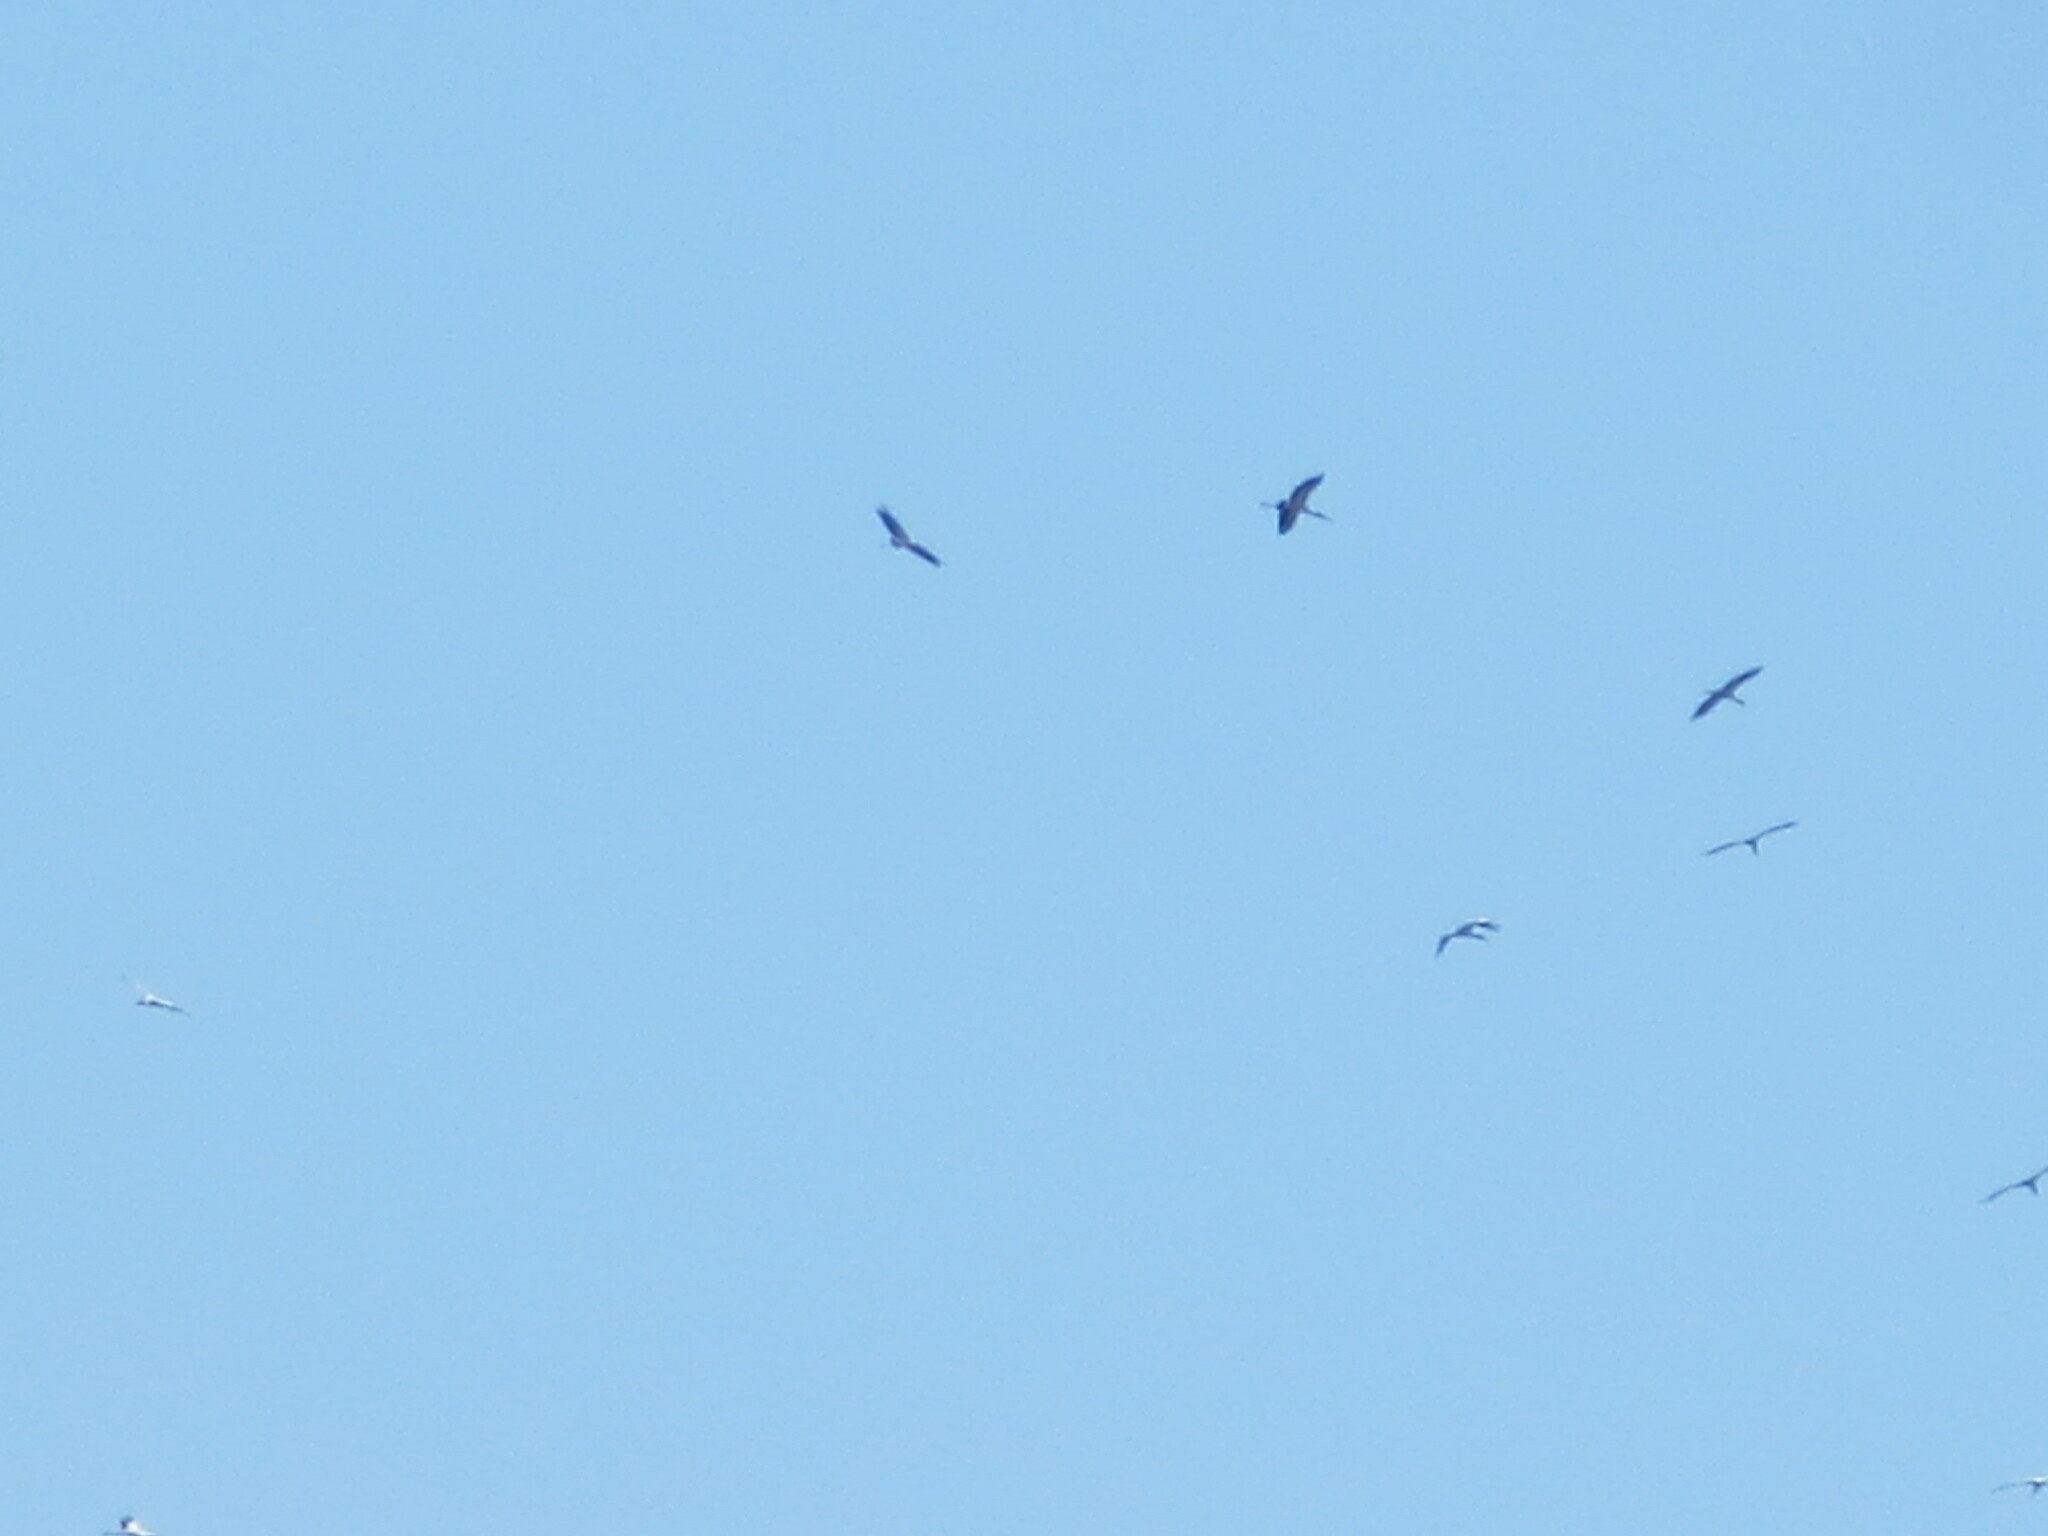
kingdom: Animalia
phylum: Chordata
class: Aves
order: Ciconiiformes
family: Ciconiidae
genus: Mycteria
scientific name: Mycteria americana
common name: Wood stork
